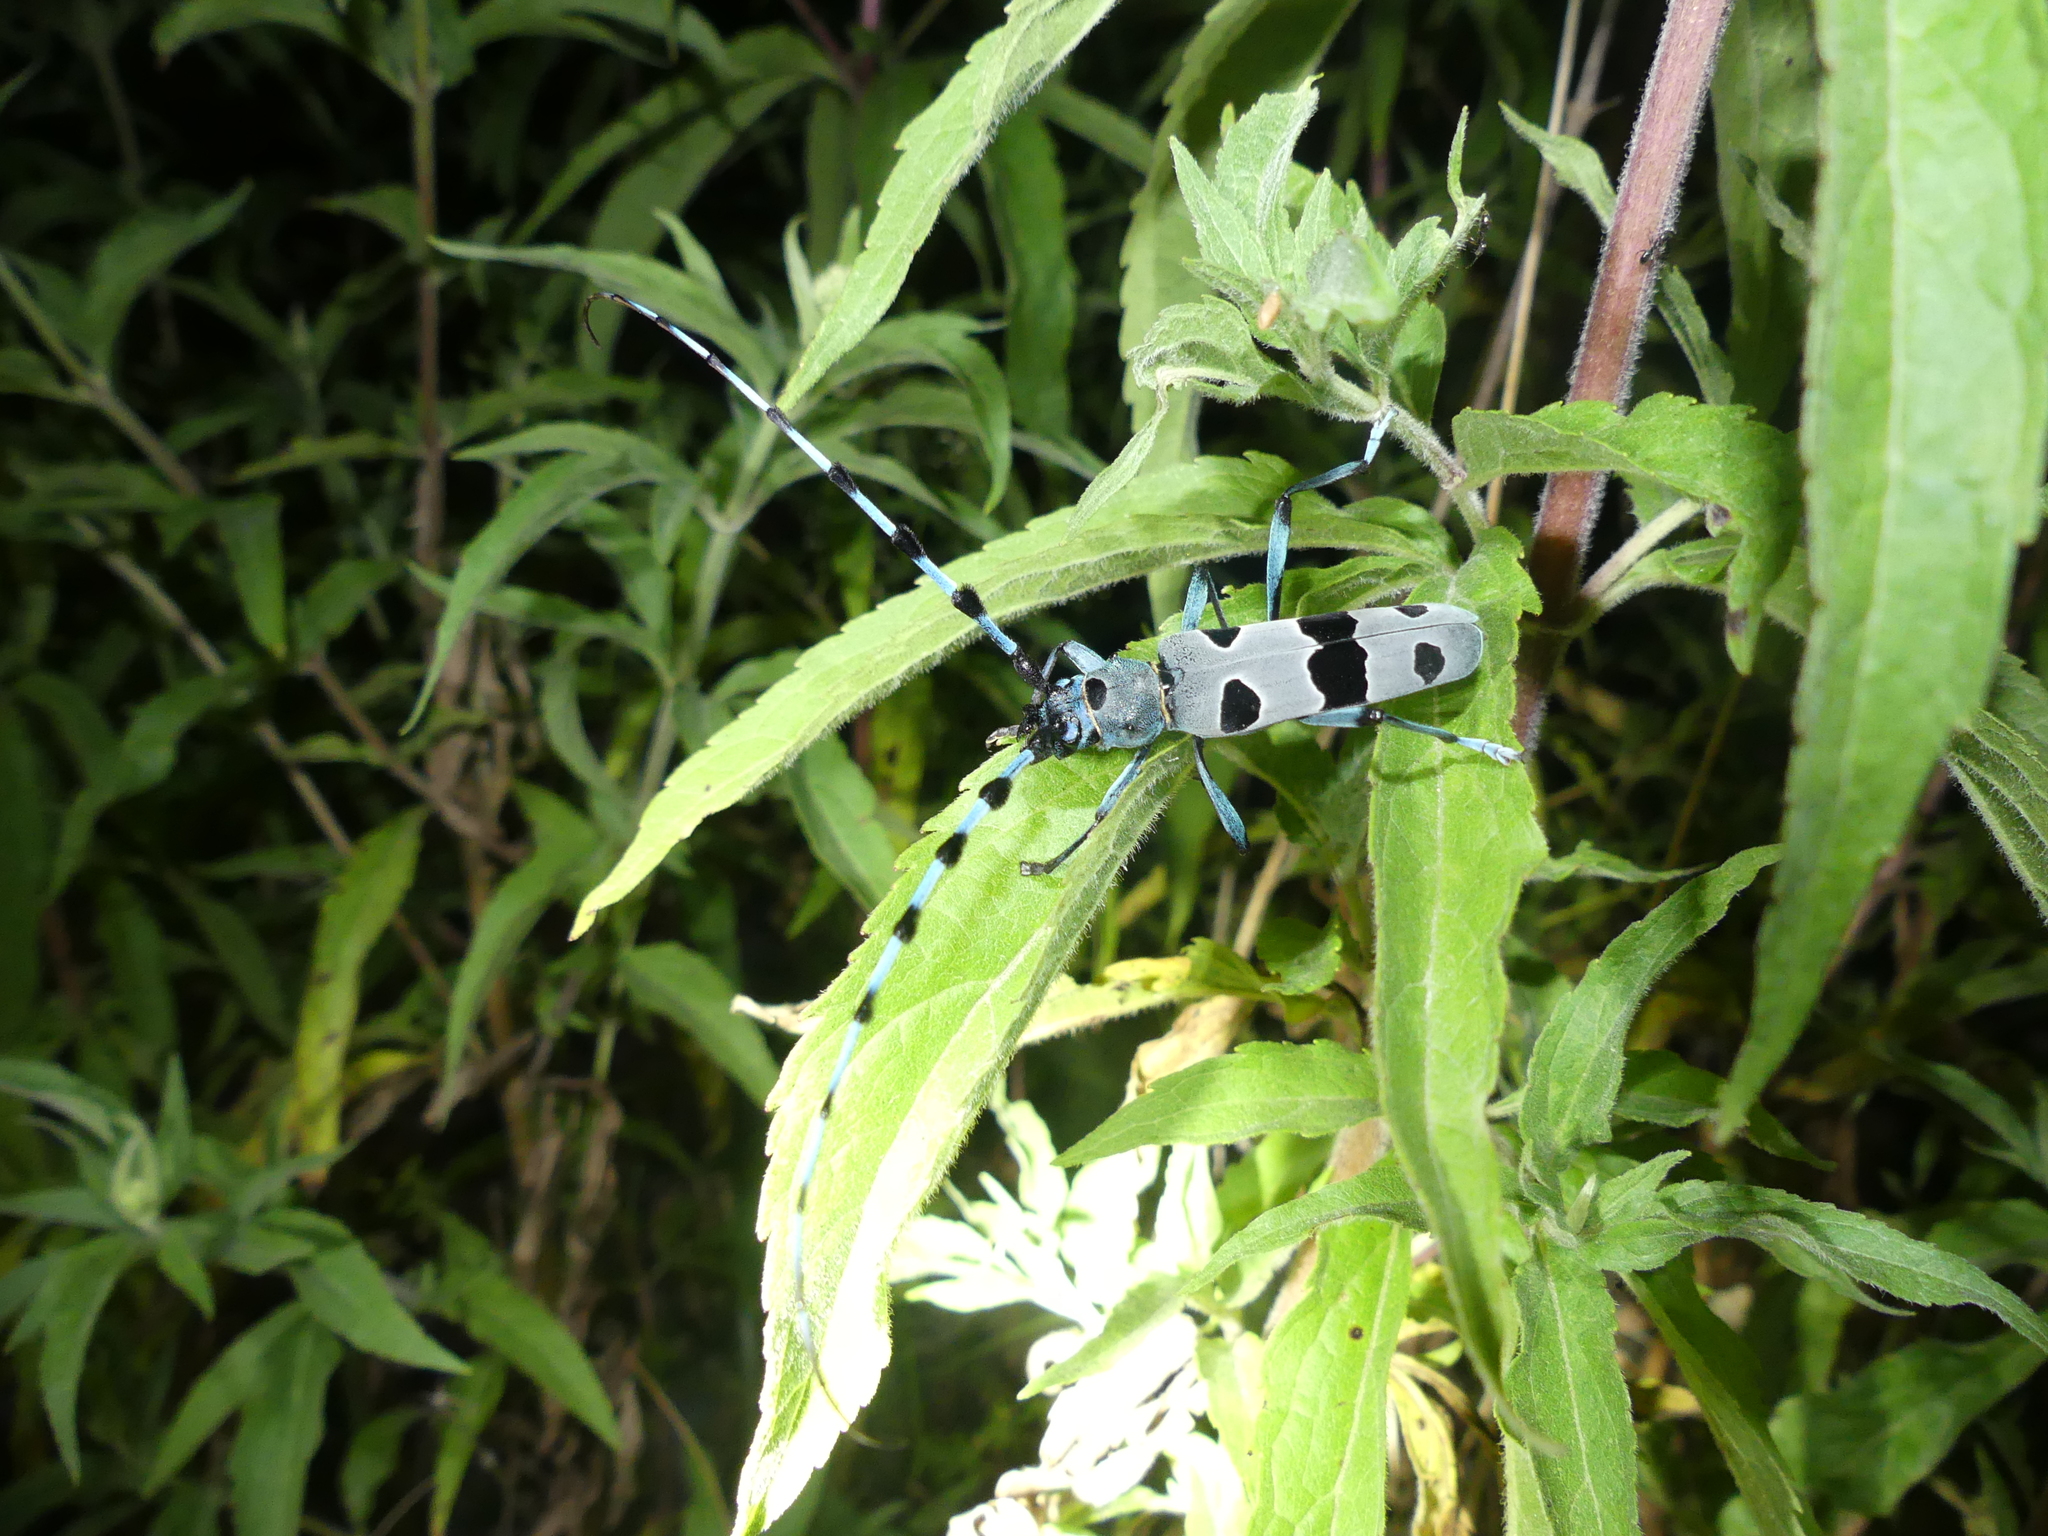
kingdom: Animalia
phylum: Arthropoda
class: Insecta
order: Coleoptera
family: Cerambycidae
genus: Rosalia
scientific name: Rosalia alpina
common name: Rosalia longicorn
